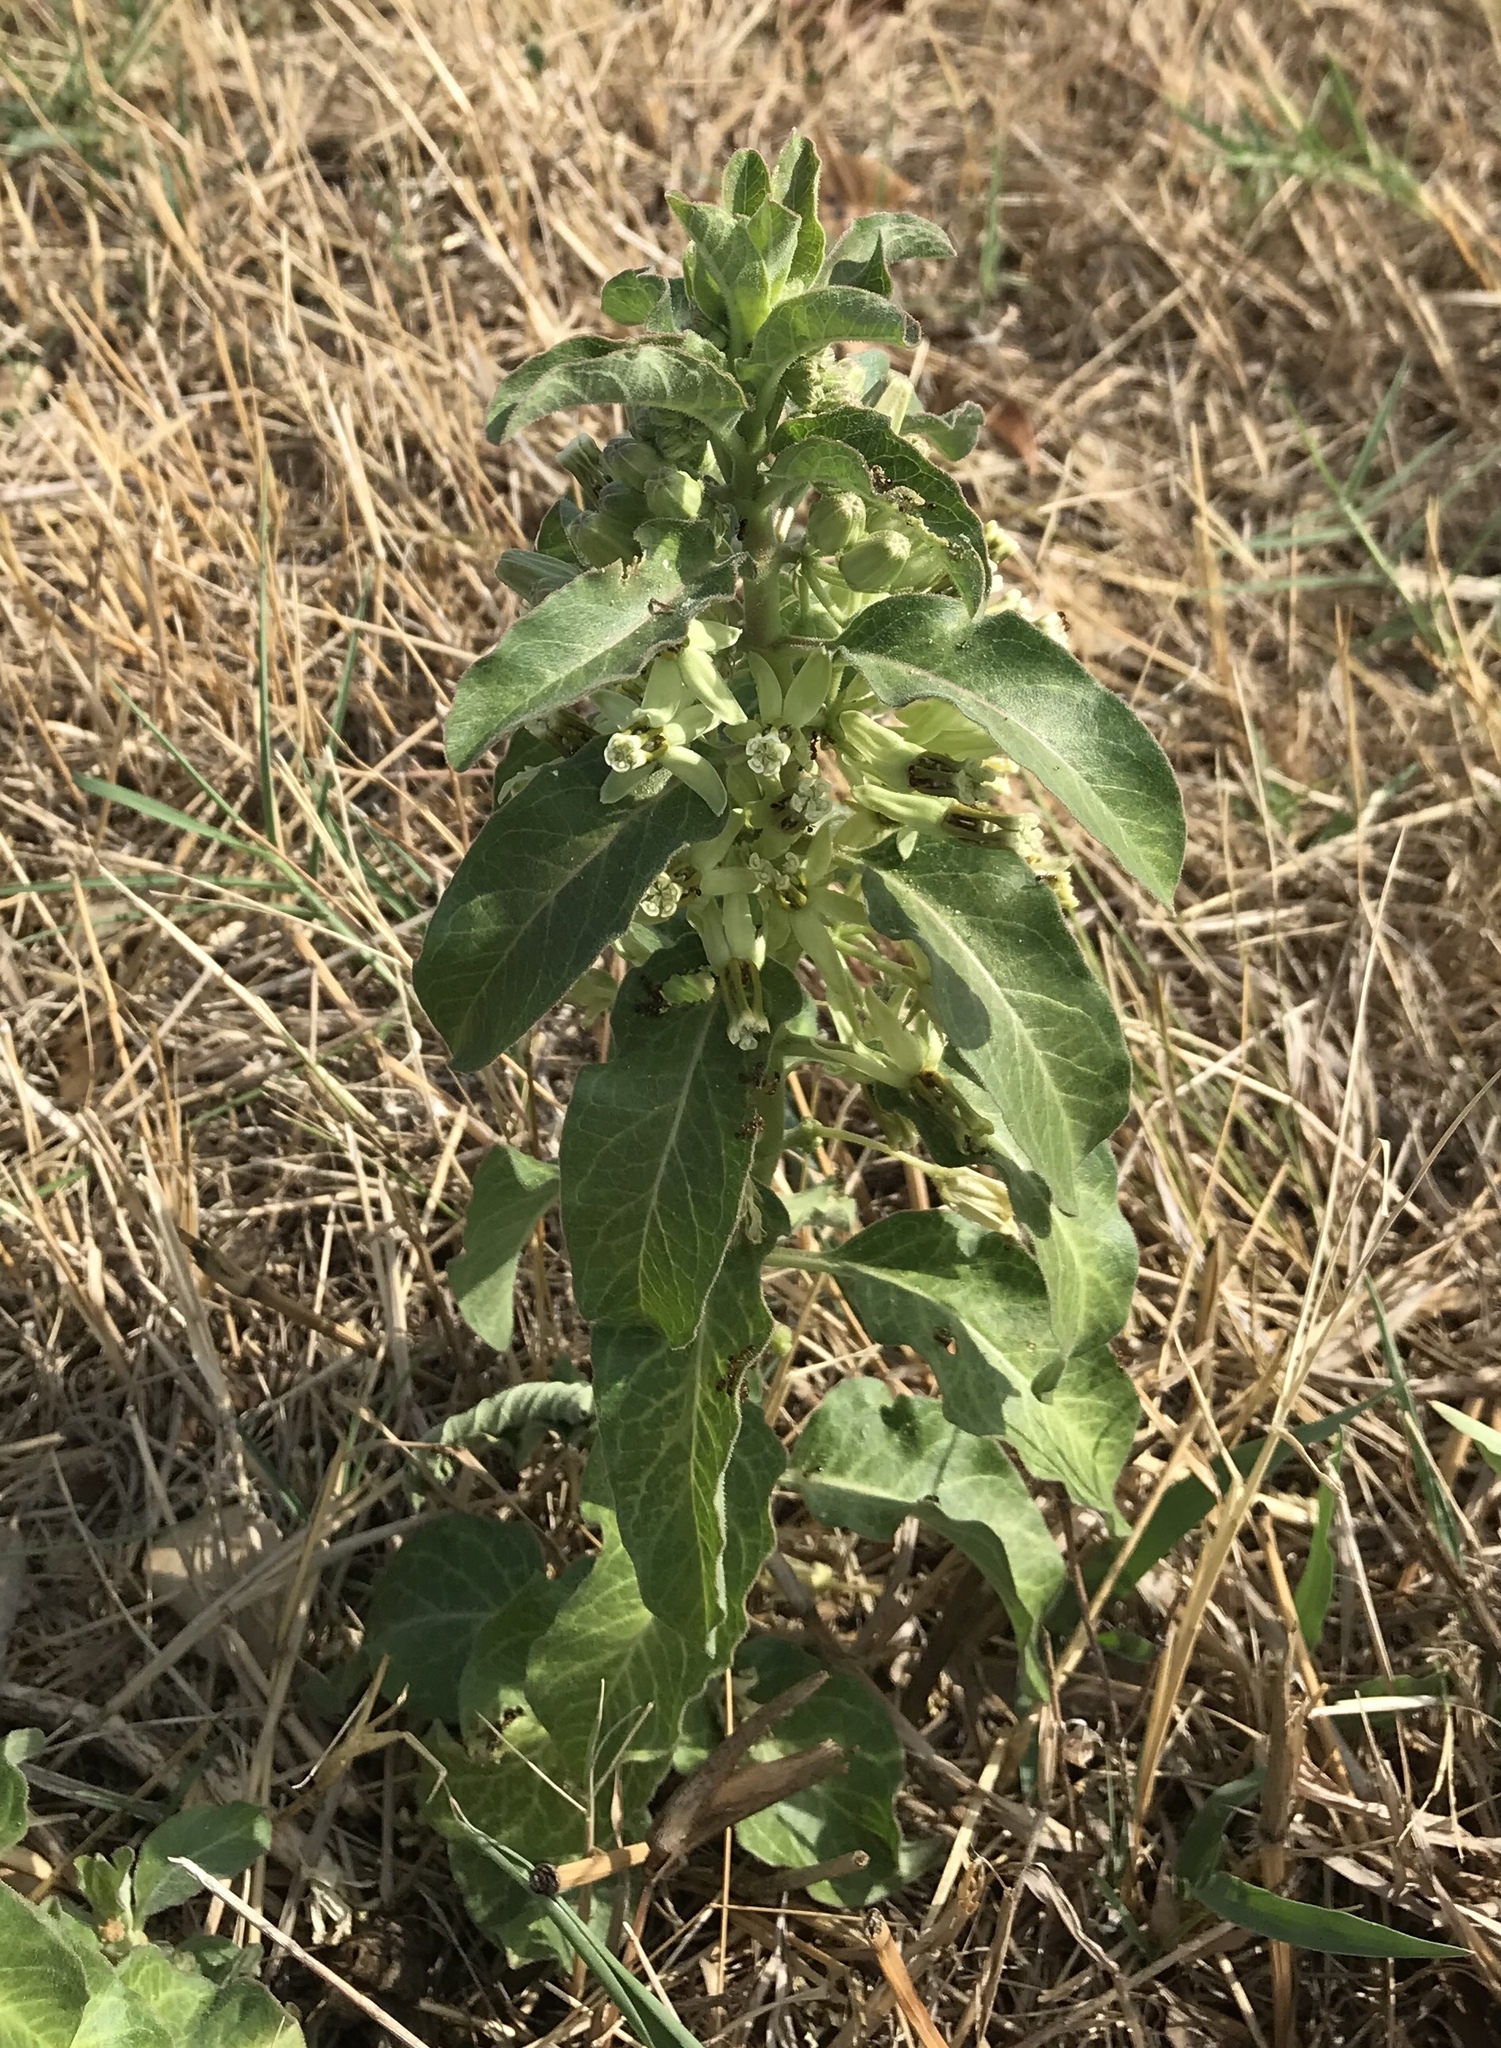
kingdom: Plantae
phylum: Tracheophyta
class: Magnoliopsida
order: Gentianales
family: Apocynaceae
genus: Asclepias
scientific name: Asclepias oenotheroides
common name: Zizotes milkweed
